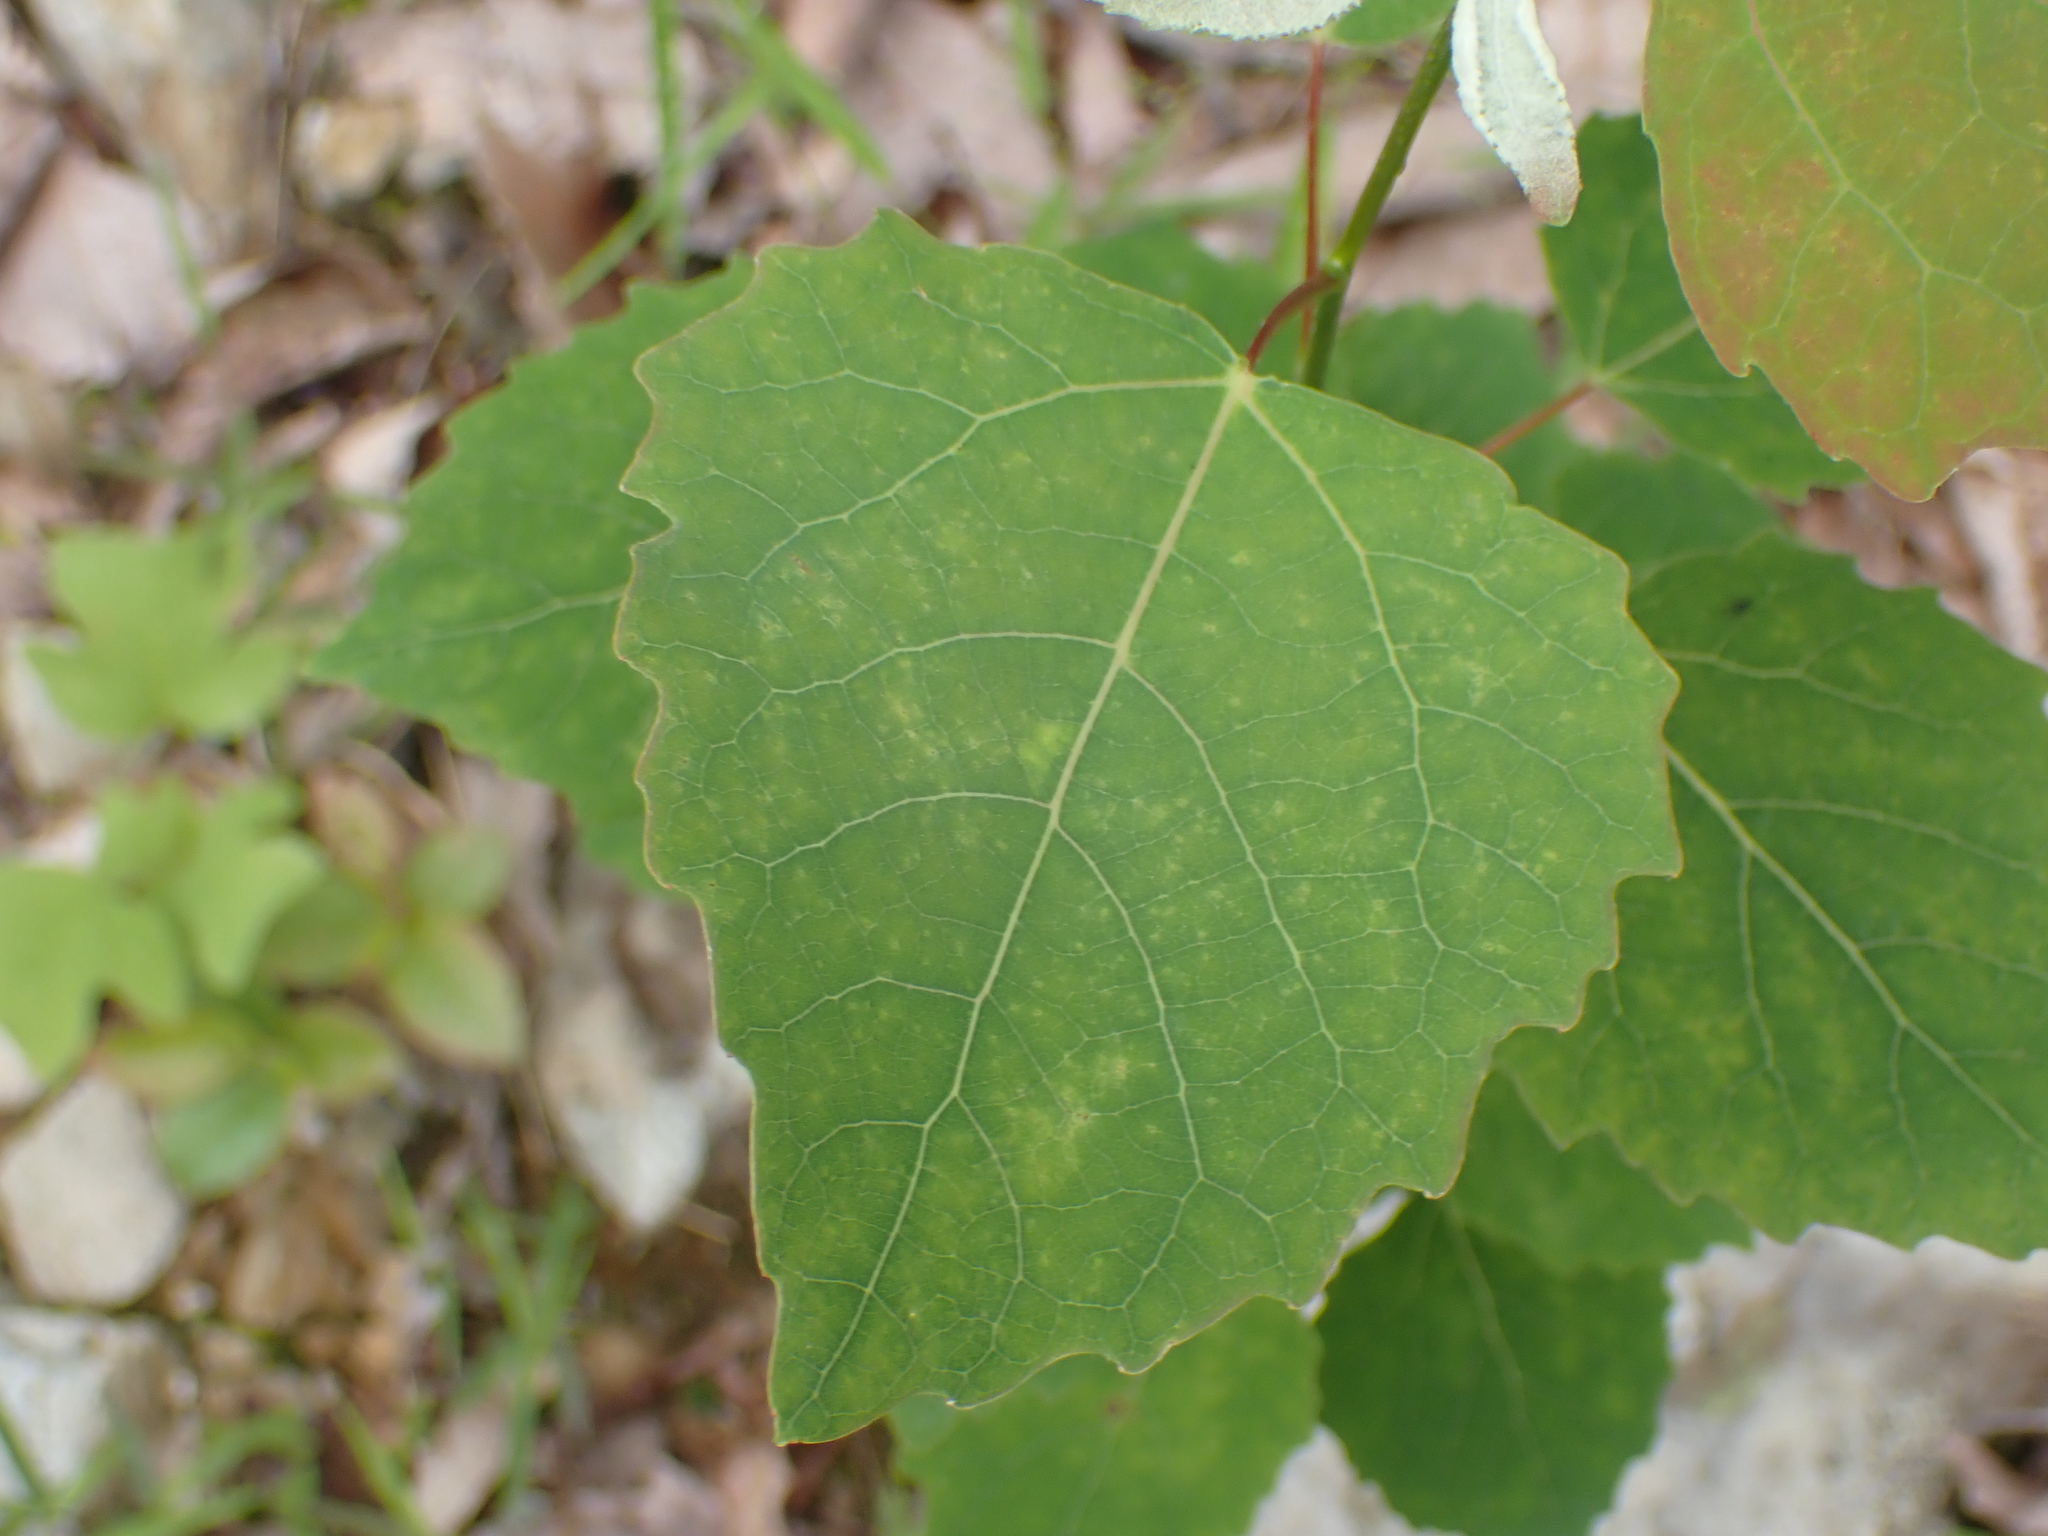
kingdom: Plantae
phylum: Tracheophyta
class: Magnoliopsida
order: Malpighiales
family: Salicaceae
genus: Populus
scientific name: Populus grandidentata
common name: Bigtooth aspen
